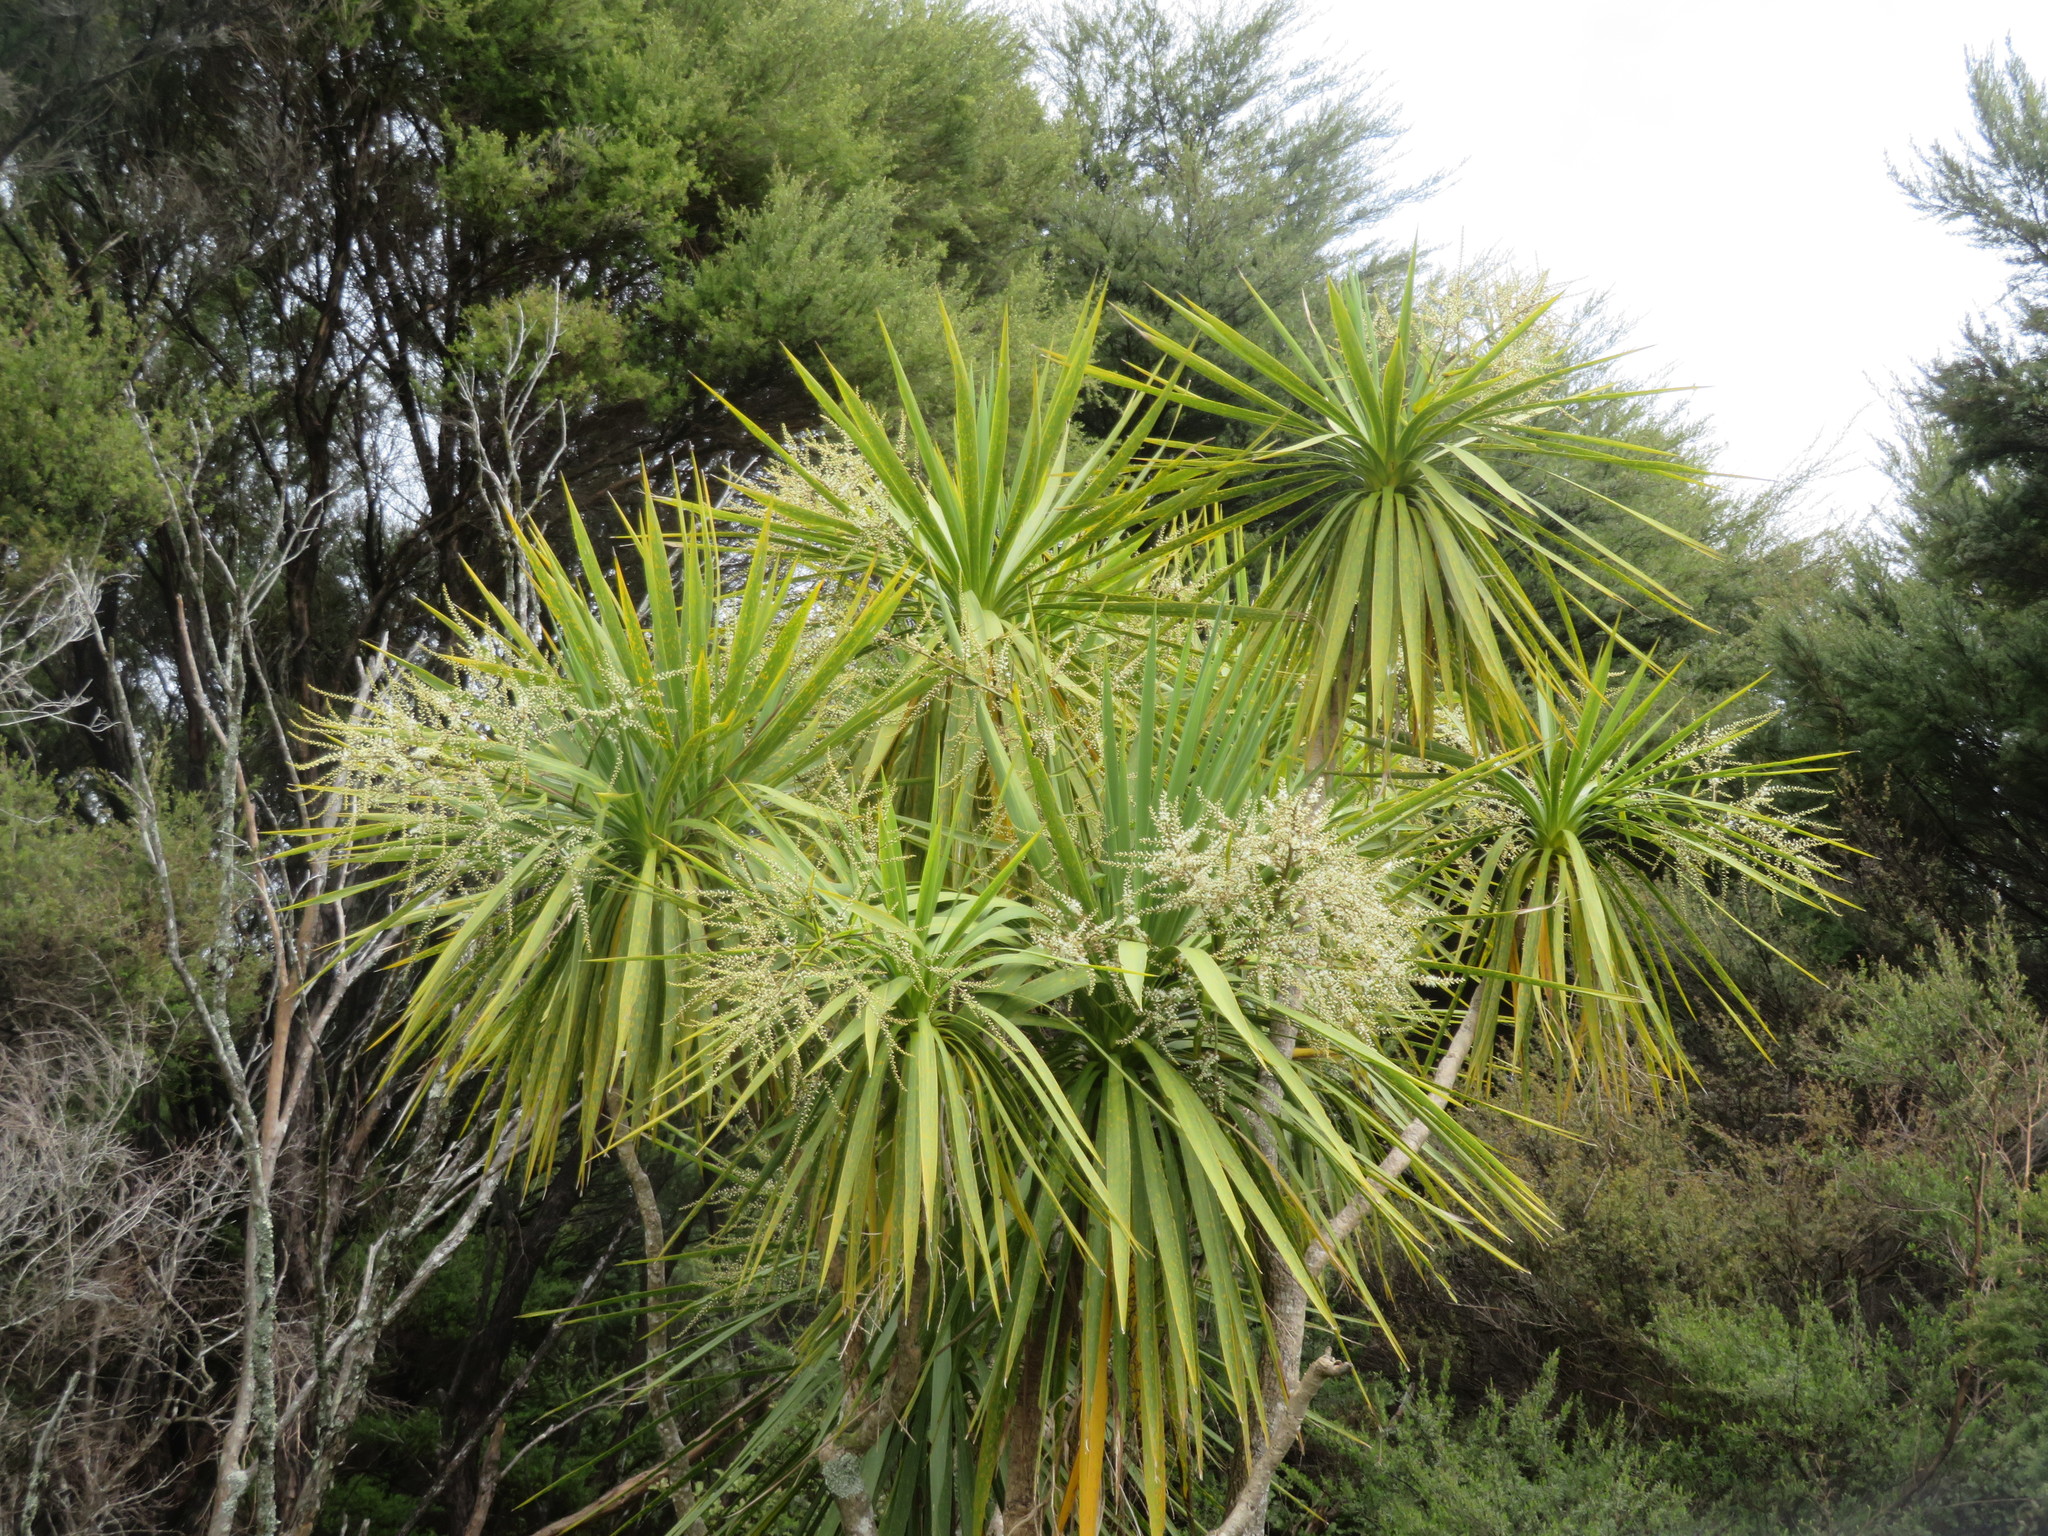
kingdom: Plantae
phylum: Tracheophyta
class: Liliopsida
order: Asparagales
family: Asparagaceae
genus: Cordyline
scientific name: Cordyline australis
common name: Cabbage-palm
